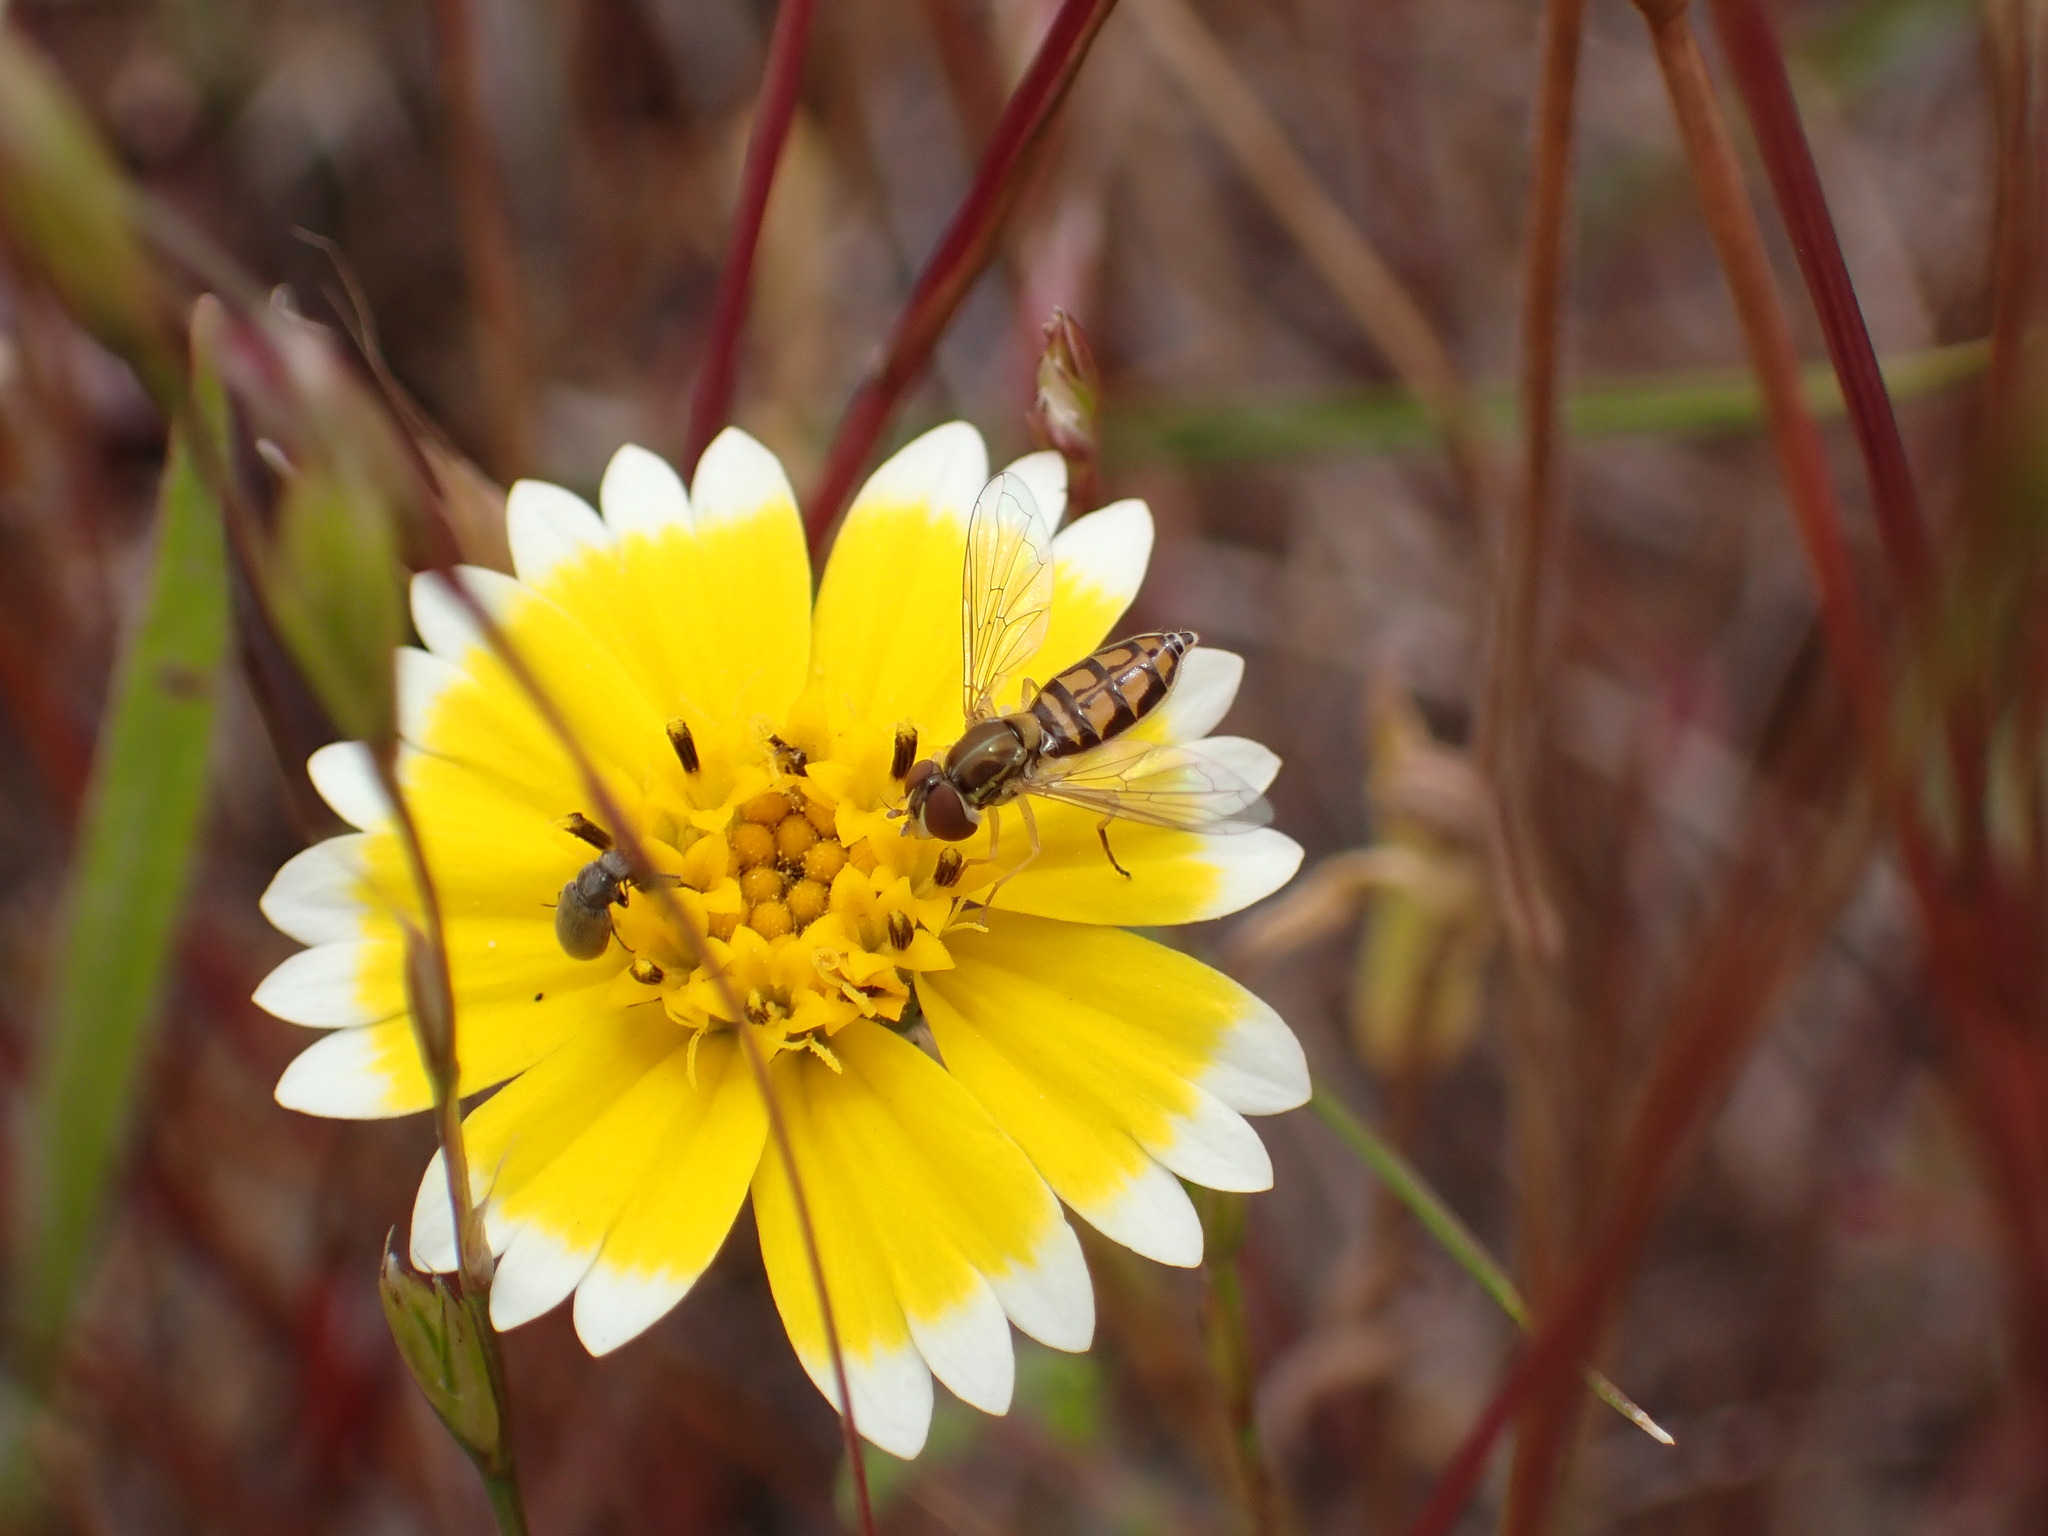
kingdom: Animalia
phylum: Arthropoda
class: Insecta
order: Diptera
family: Syrphidae
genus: Toxomerus
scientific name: Toxomerus marginatus
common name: Syrphid fly
